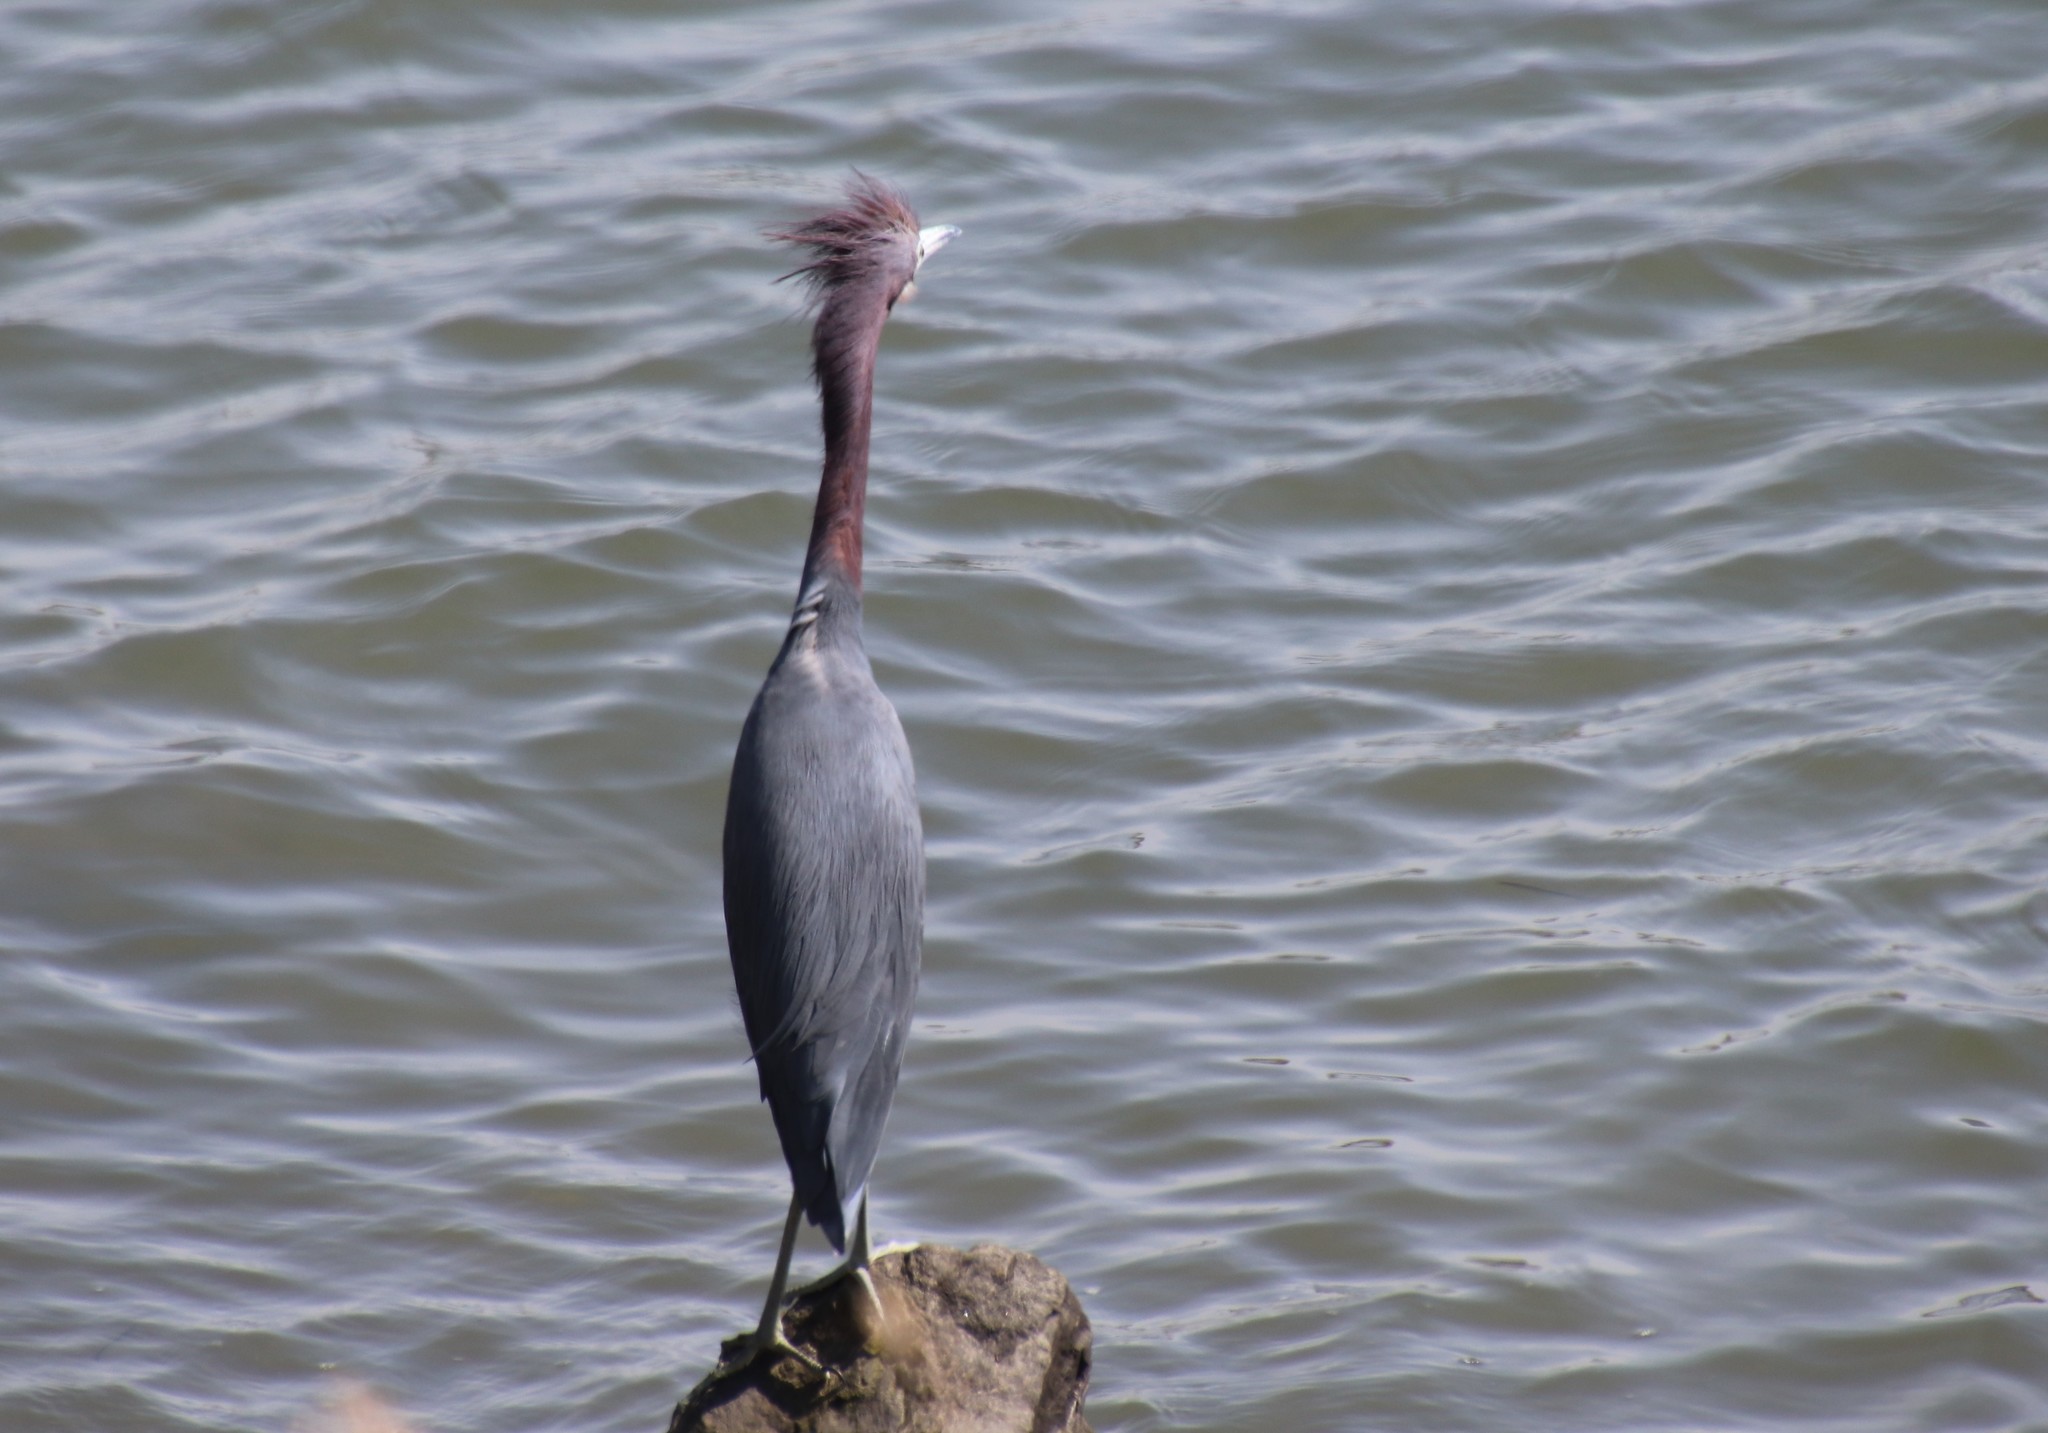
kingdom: Animalia
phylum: Chordata
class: Aves
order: Pelecaniformes
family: Ardeidae
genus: Egretta
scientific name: Egretta caerulea
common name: Little blue heron
